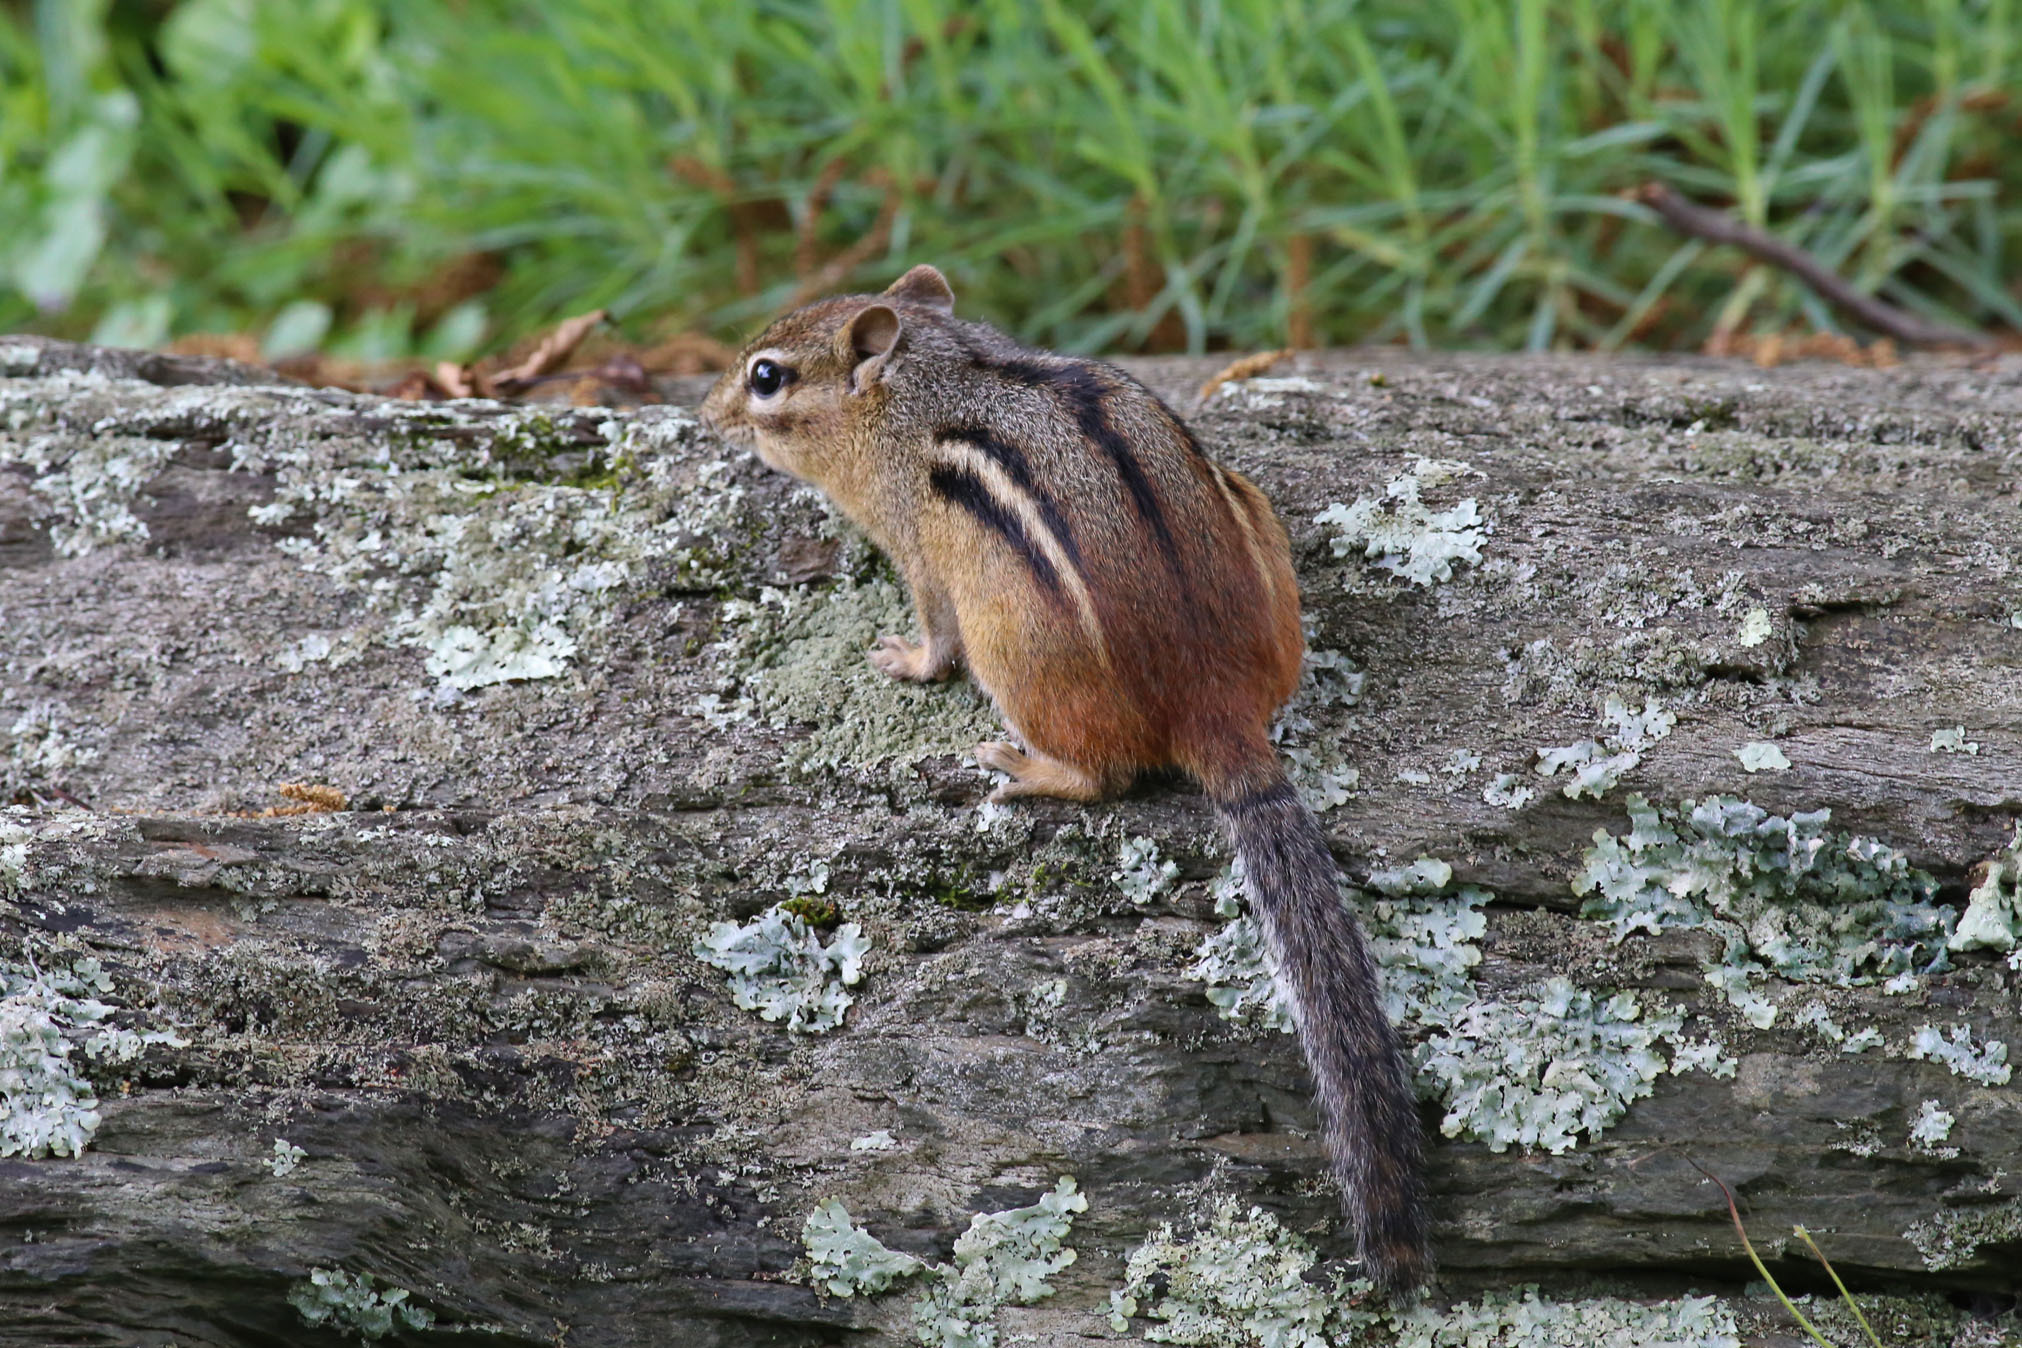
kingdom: Animalia
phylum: Chordata
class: Mammalia
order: Rodentia
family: Sciuridae
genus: Tamias
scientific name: Tamias striatus
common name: Eastern chipmunk
